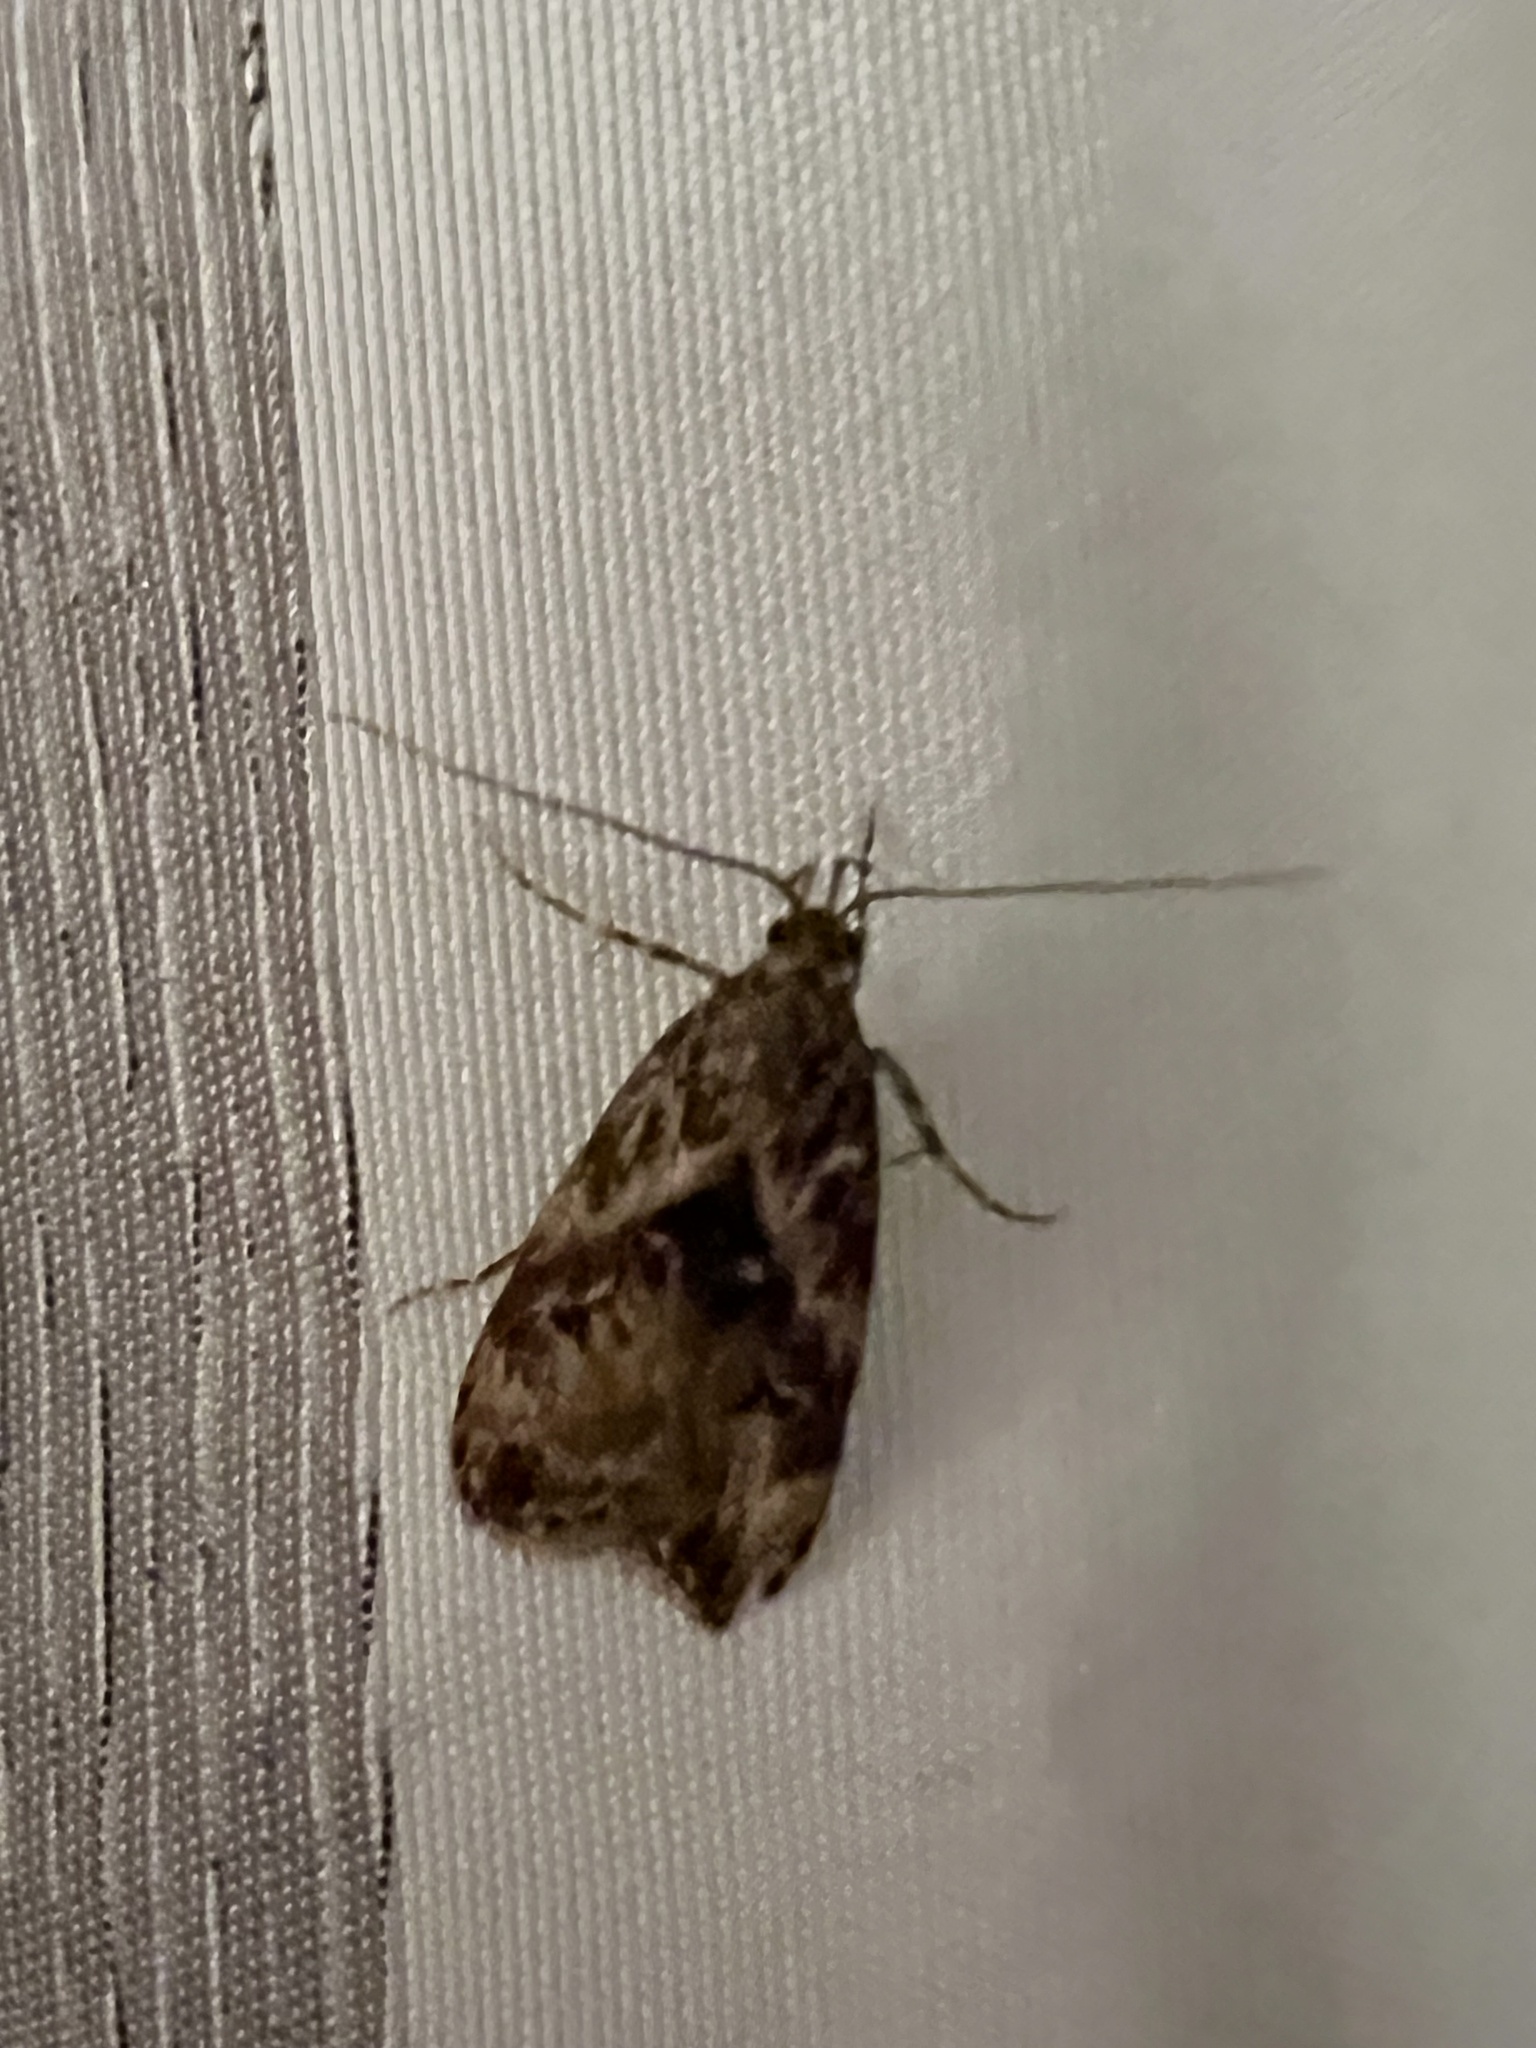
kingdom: Animalia
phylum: Arthropoda
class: Insecta
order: Lepidoptera
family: Oecophoridae
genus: Izatha
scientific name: Izatha austera
